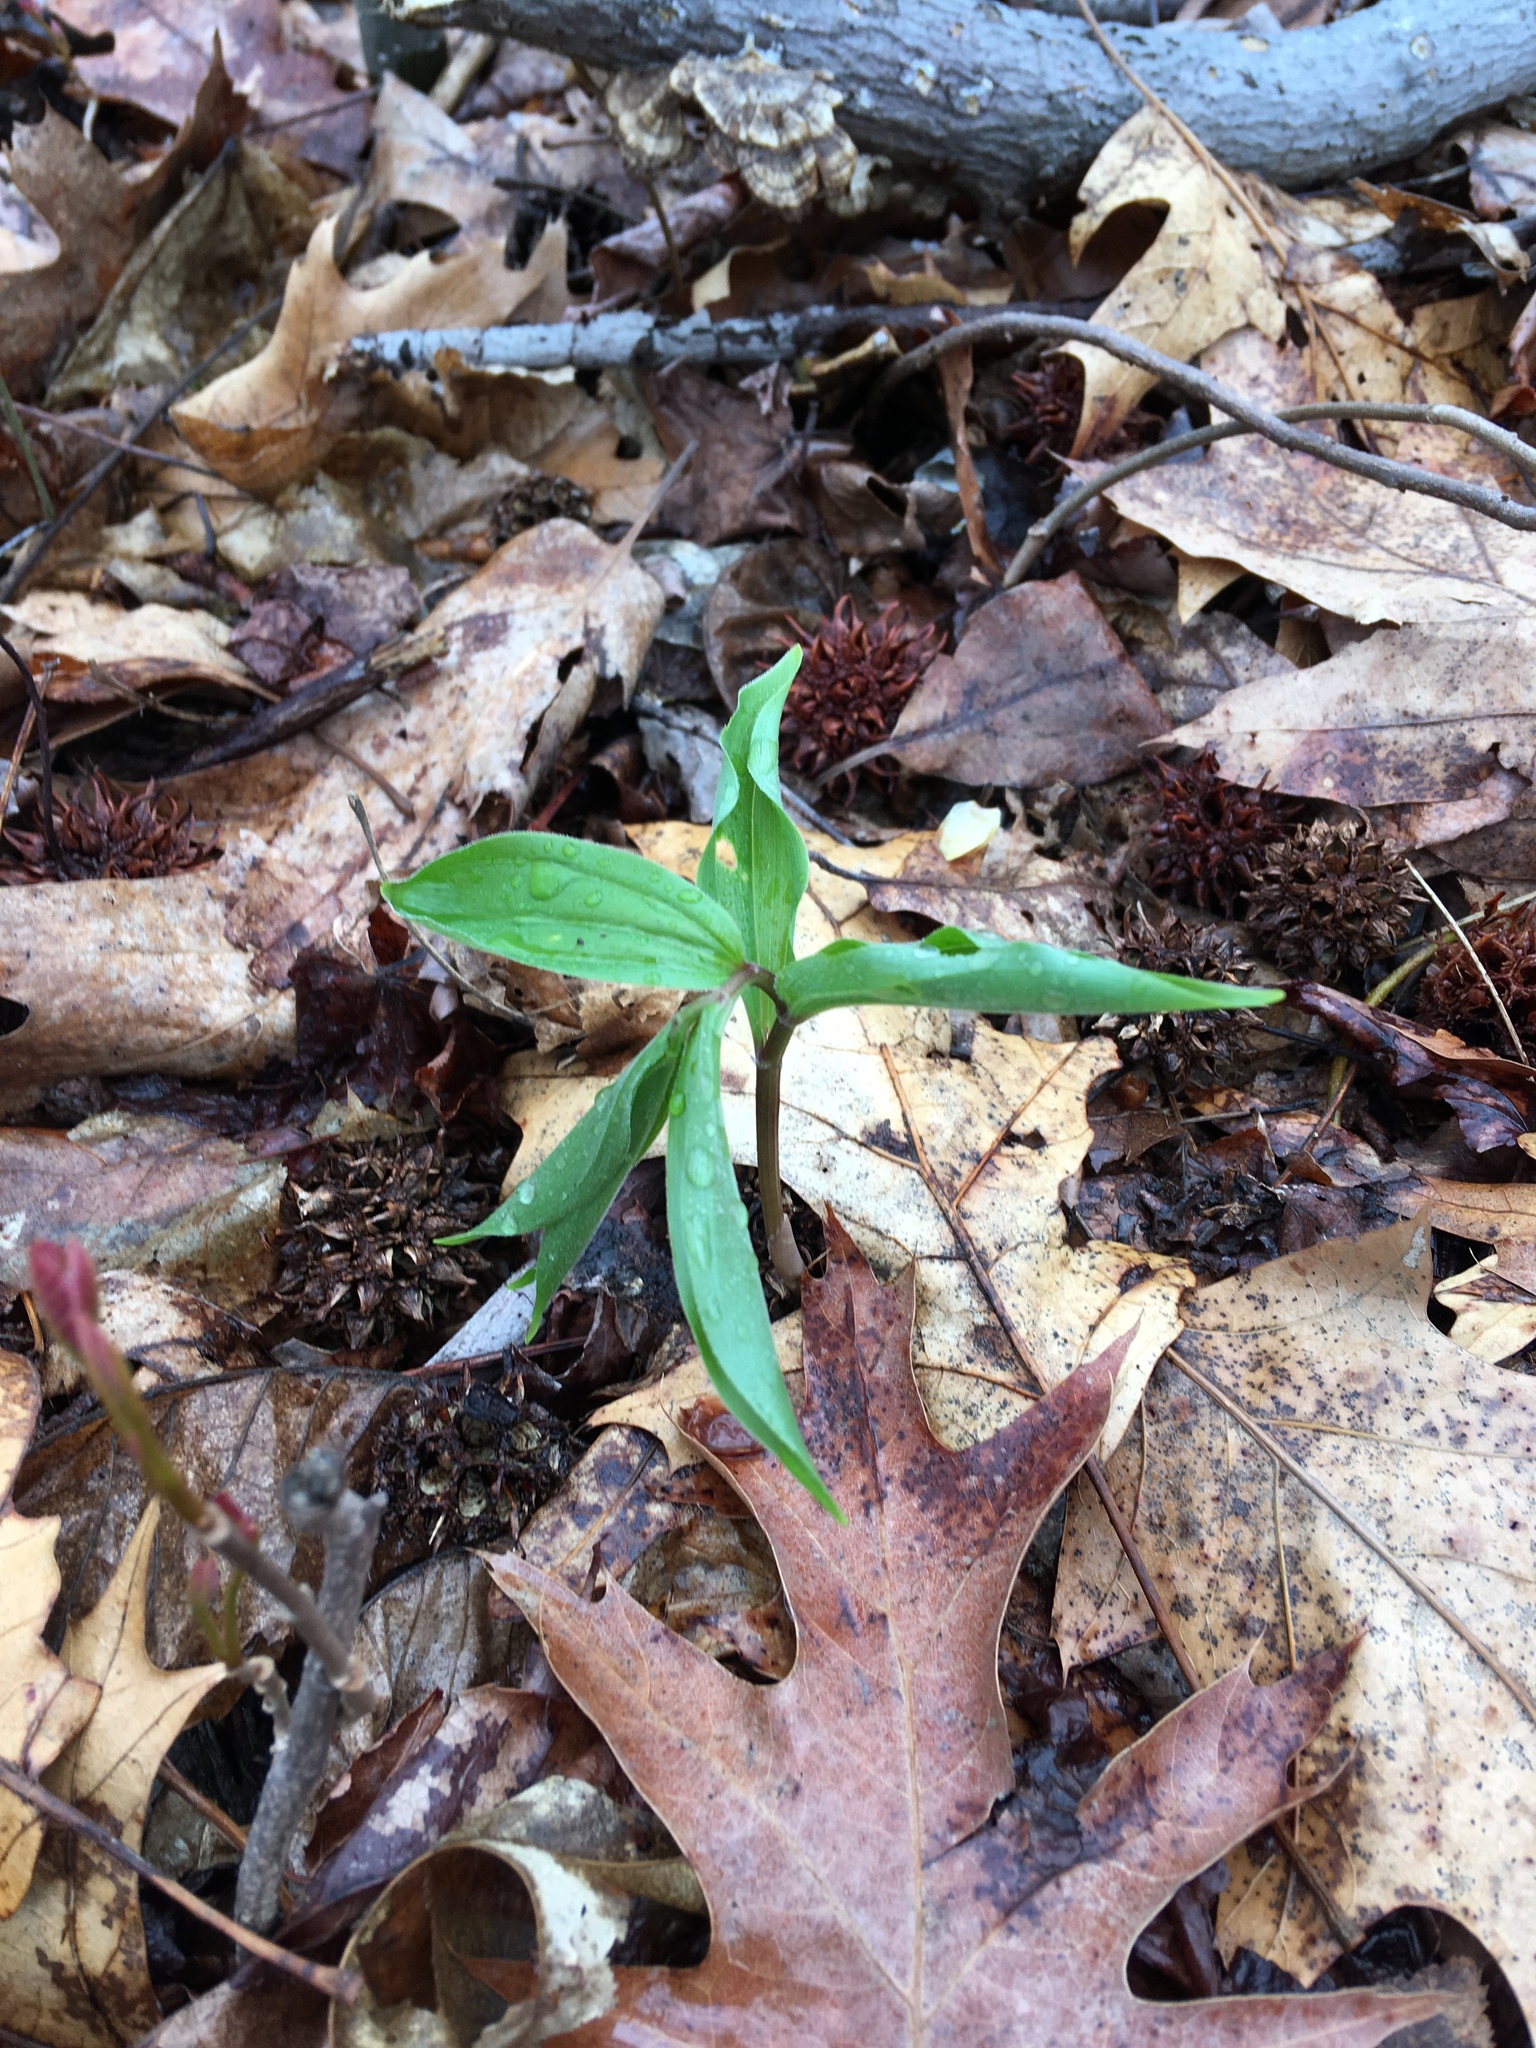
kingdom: Plantae
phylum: Tracheophyta
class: Liliopsida
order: Asparagales
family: Asparagaceae
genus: Maianthemum
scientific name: Maianthemum racemosum
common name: False spikenard
